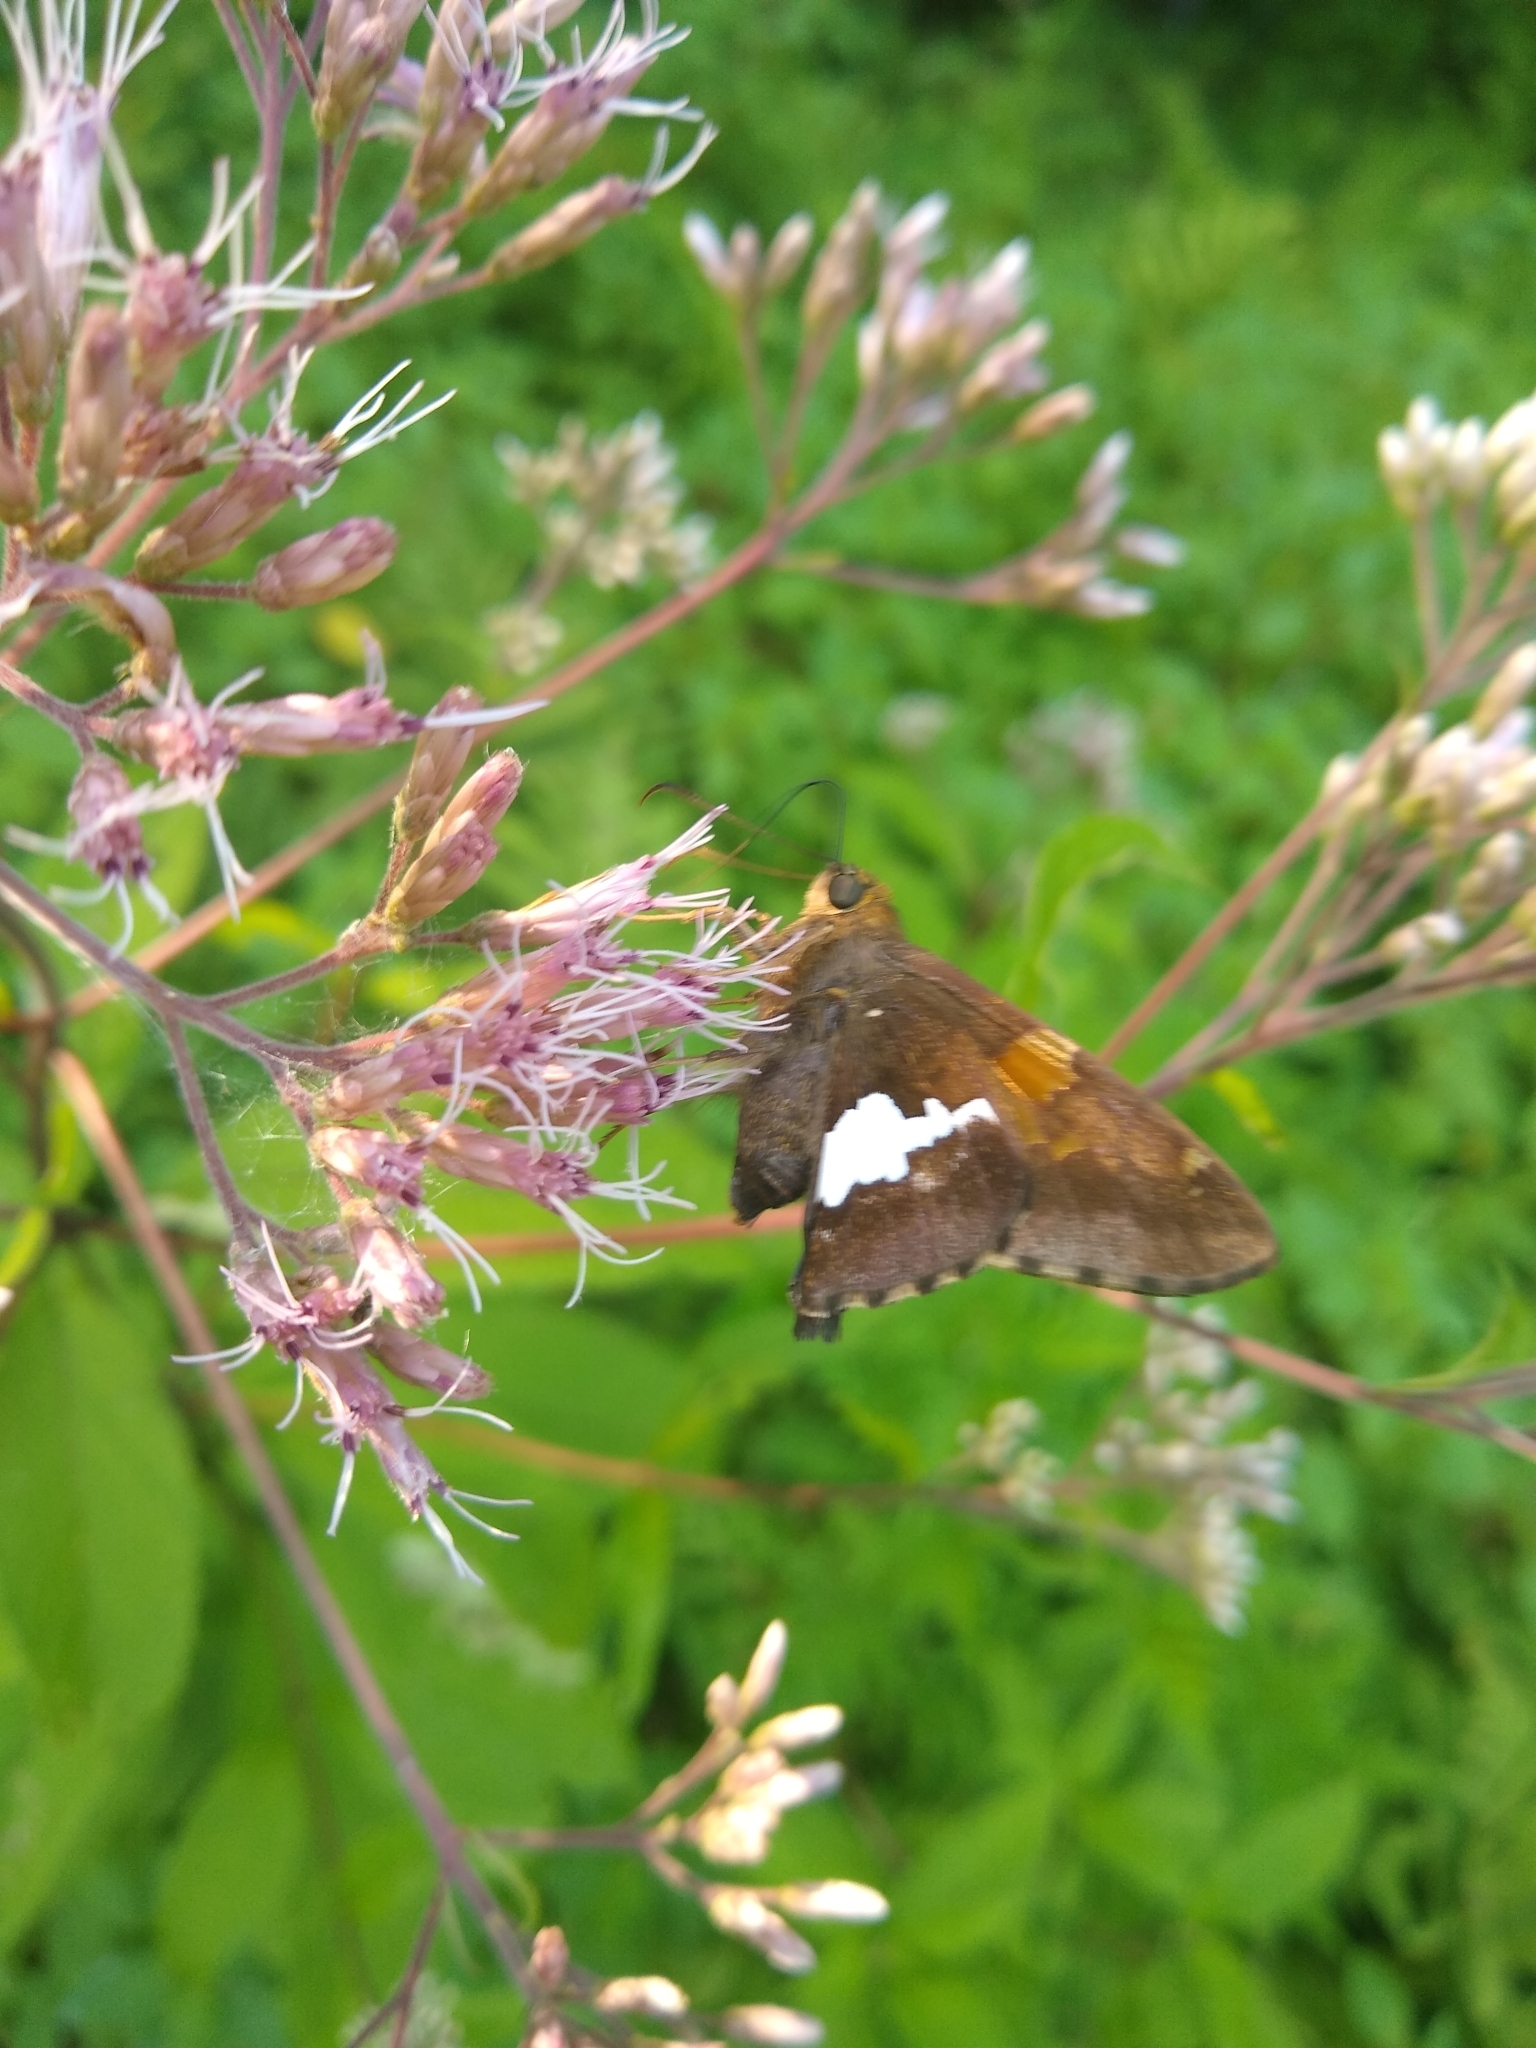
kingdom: Animalia
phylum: Arthropoda
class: Insecta
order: Lepidoptera
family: Hesperiidae
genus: Epargyreus
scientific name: Epargyreus clarus
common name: Silver-spotted skipper
